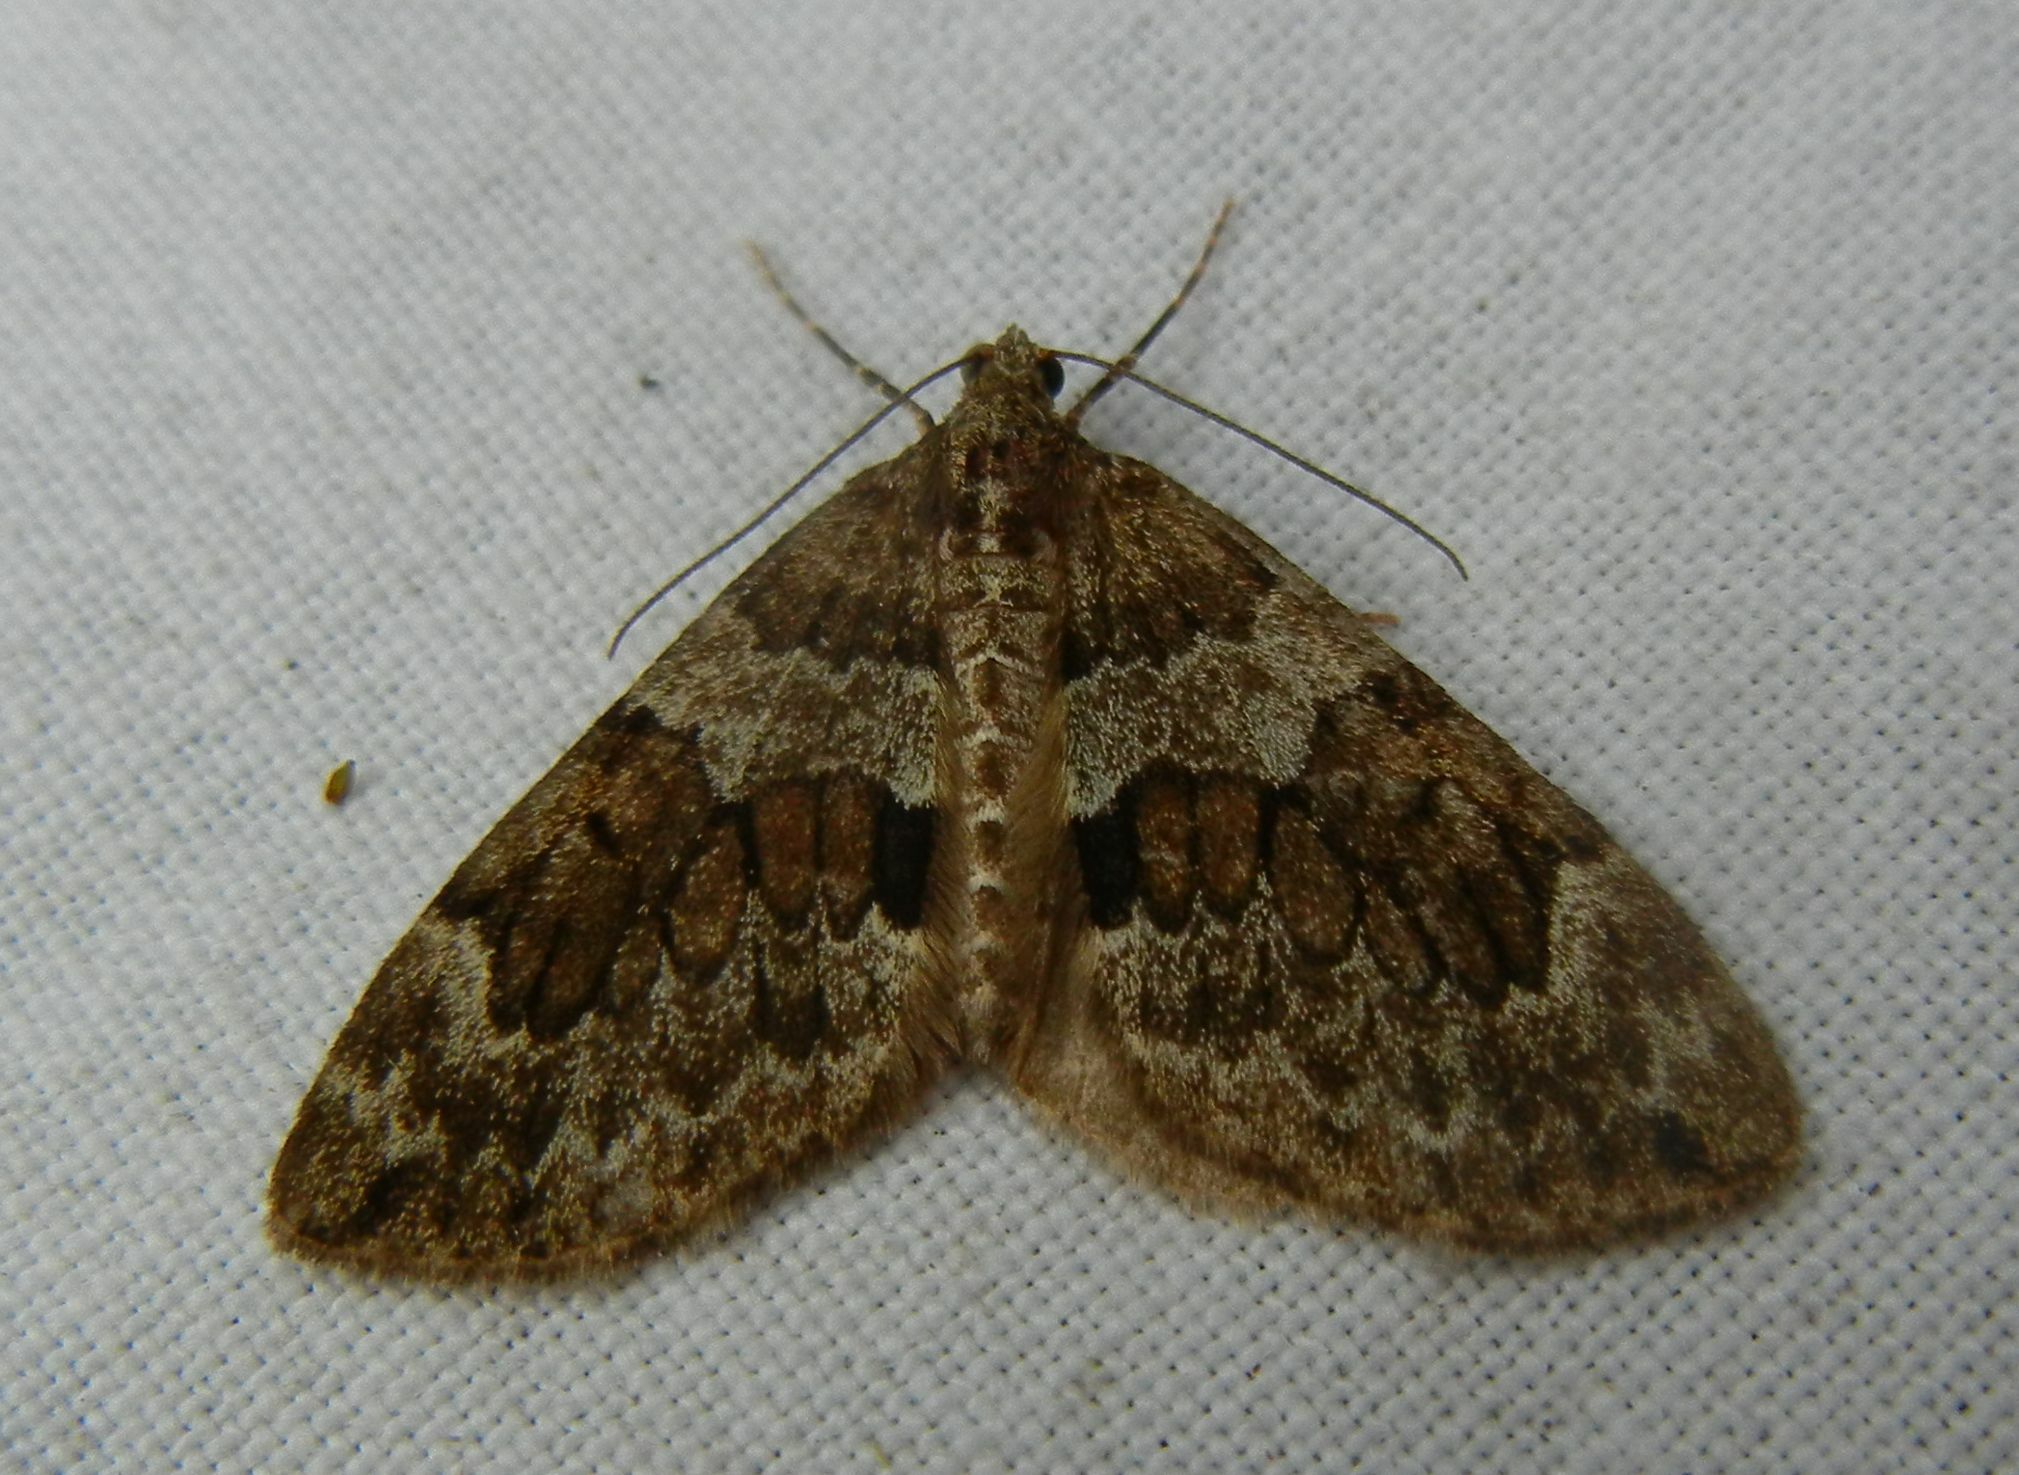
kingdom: Animalia
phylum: Arthropoda
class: Insecta
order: Lepidoptera
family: Geometridae
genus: Thera
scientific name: Thera britannica
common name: Spruce carpet
